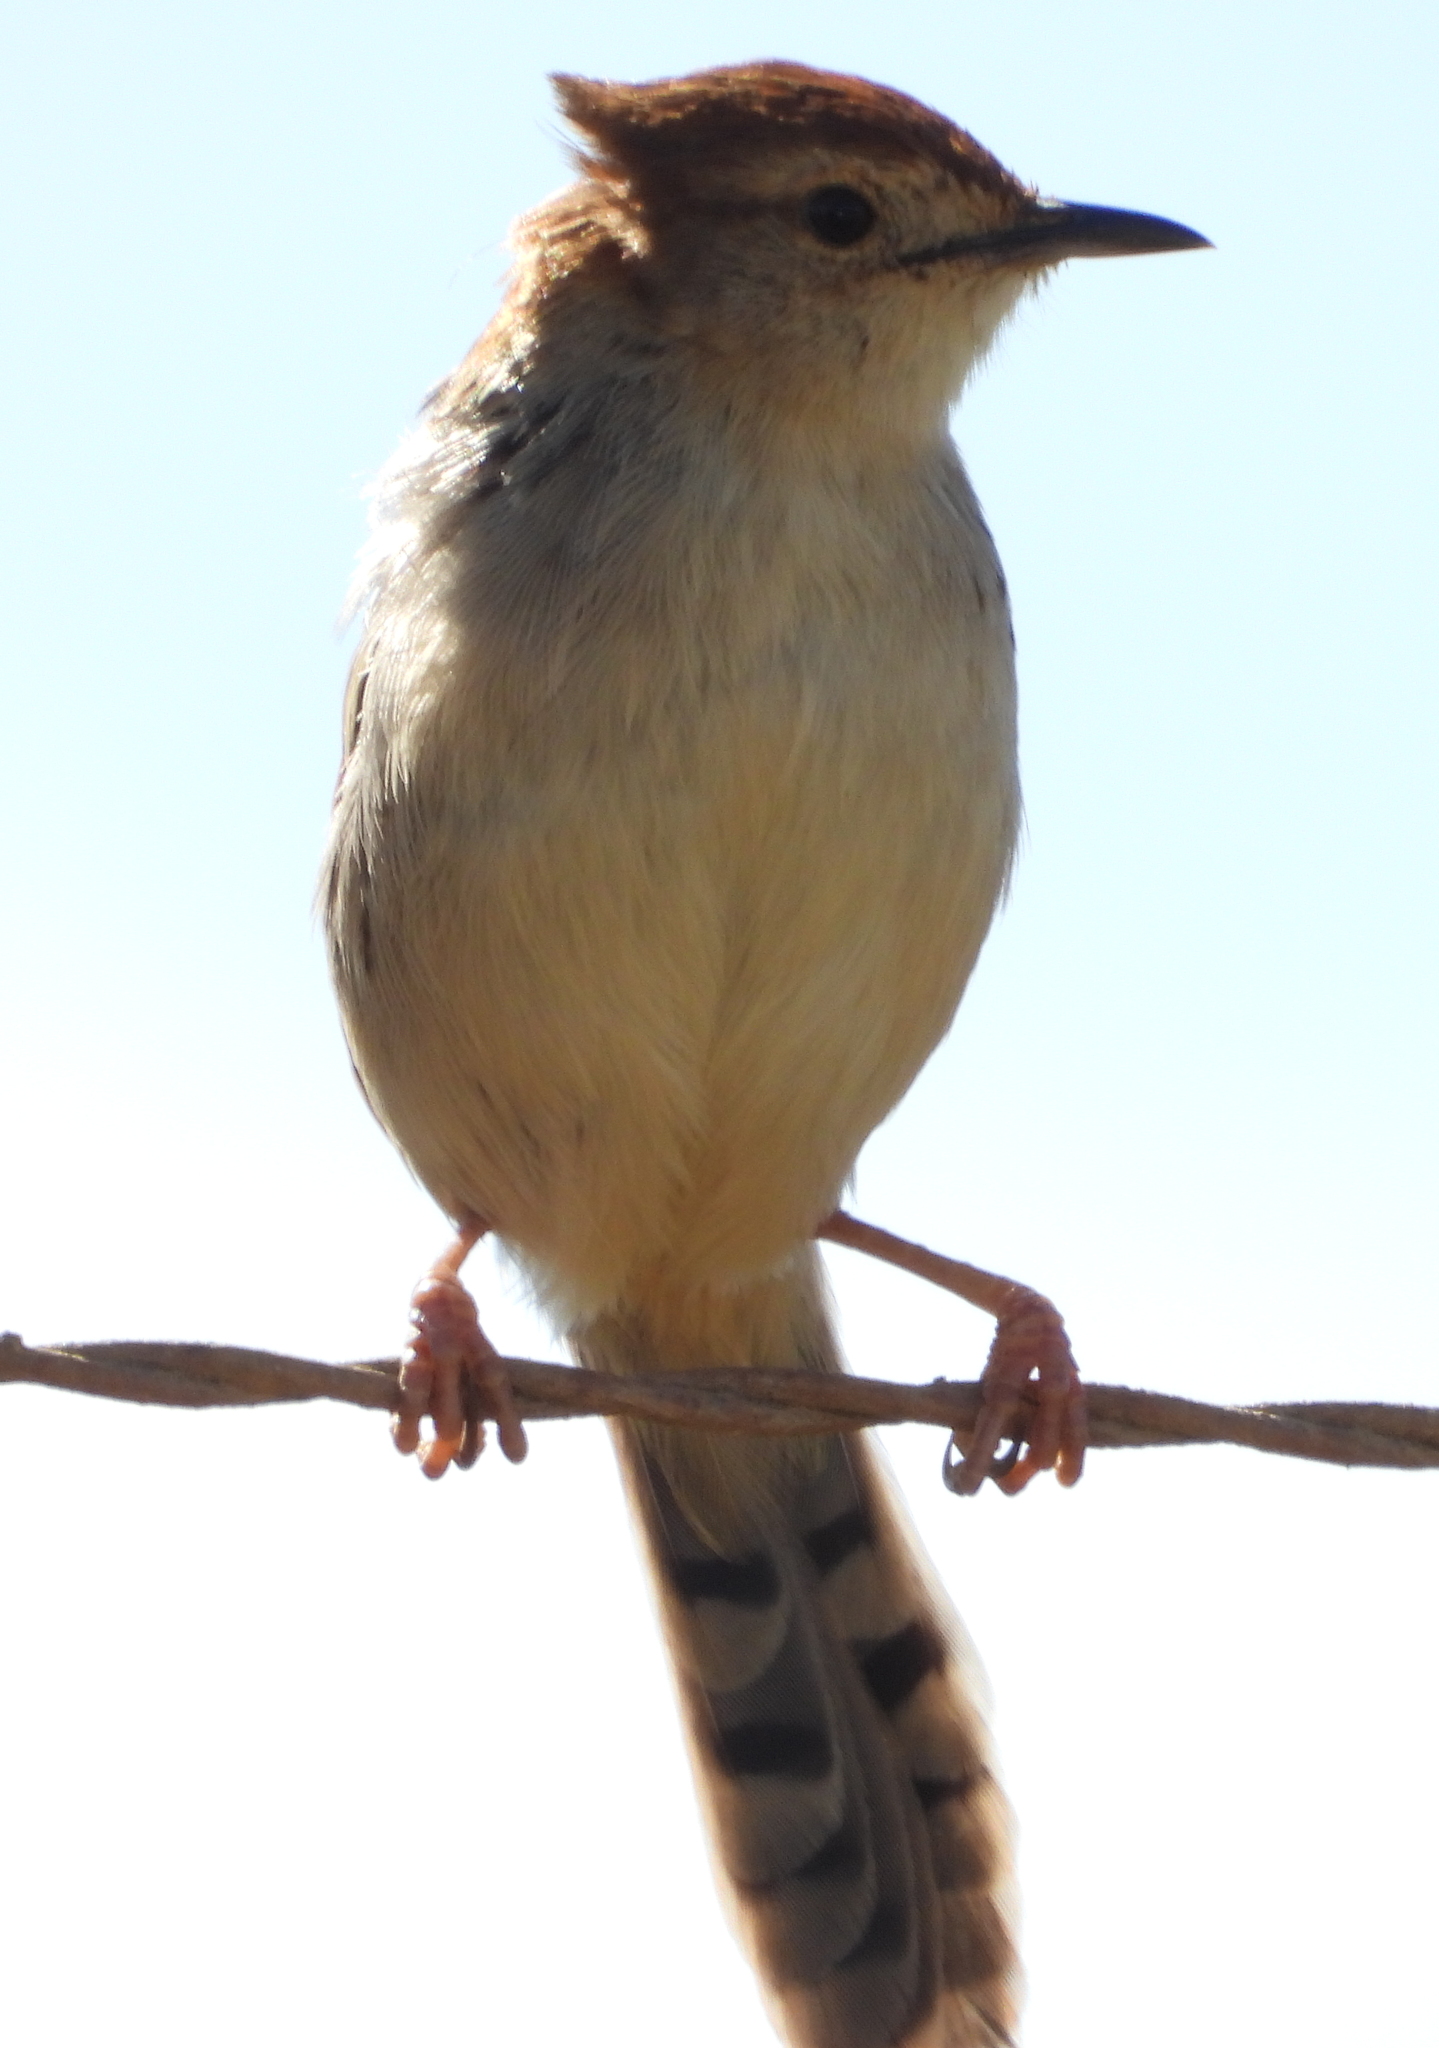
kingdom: Animalia
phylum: Chordata
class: Aves
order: Passeriformes
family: Cisticolidae
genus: Cisticola
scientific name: Cisticola tinniens
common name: Levaillant's cisticola
